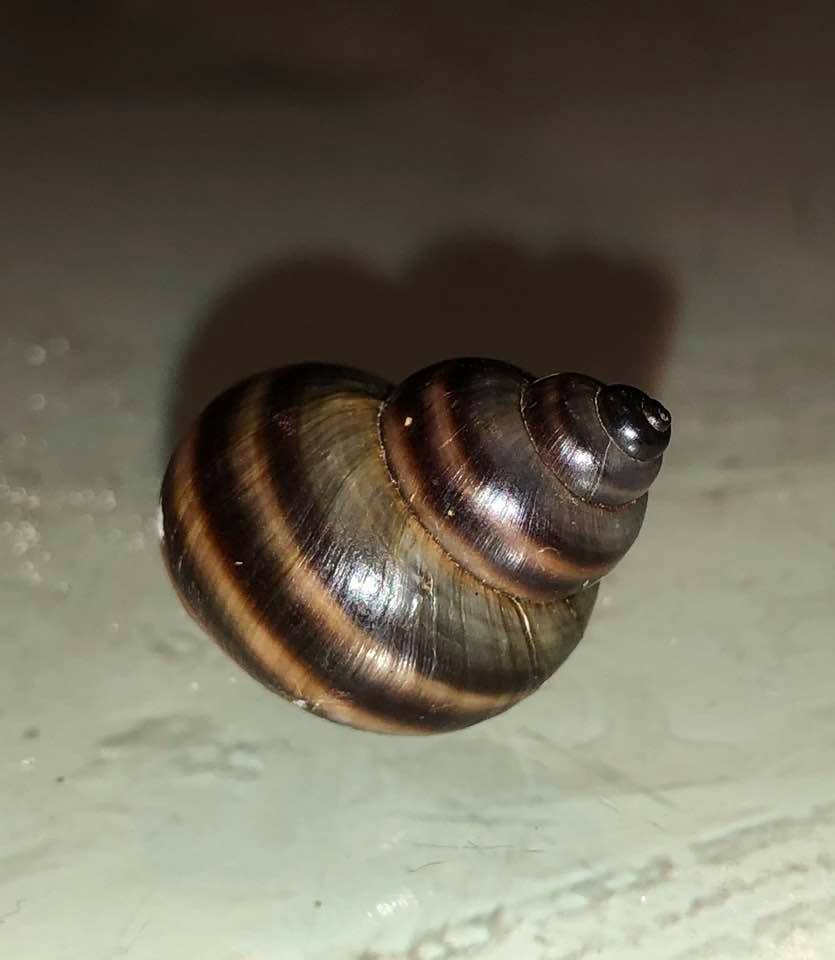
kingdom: Animalia
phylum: Mollusca
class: Gastropoda
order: Architaenioglossa
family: Viviparidae
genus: Callinina
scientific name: Callinina georgiana
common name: Banded mystery snail
